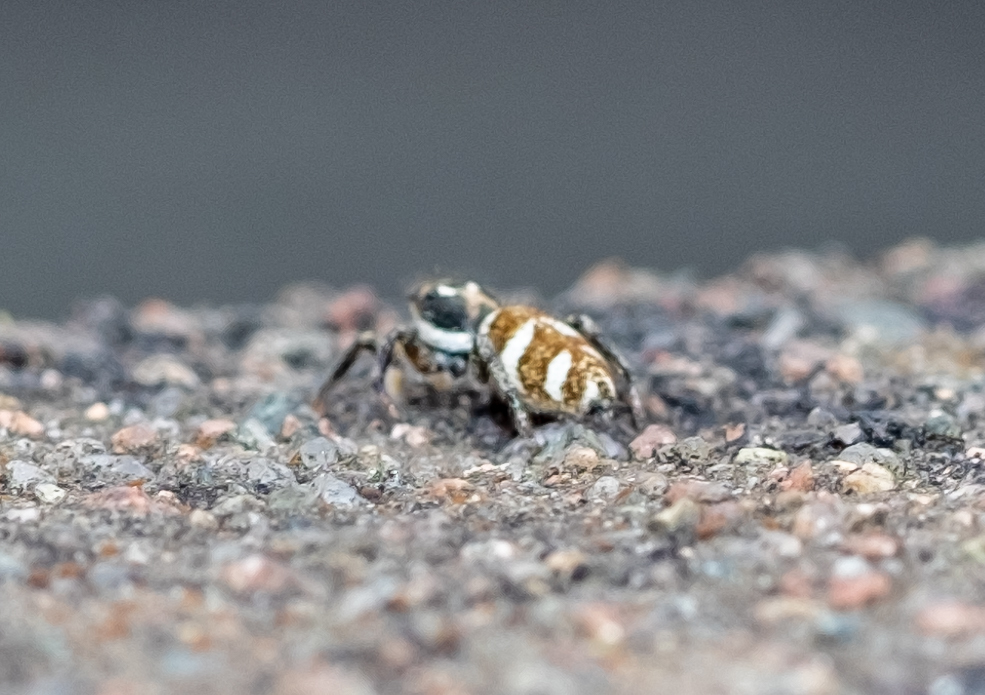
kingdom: Animalia
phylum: Arthropoda
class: Arachnida
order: Araneae
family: Salticidae
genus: Salticus
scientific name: Salticus scenicus
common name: Zebra jumper
